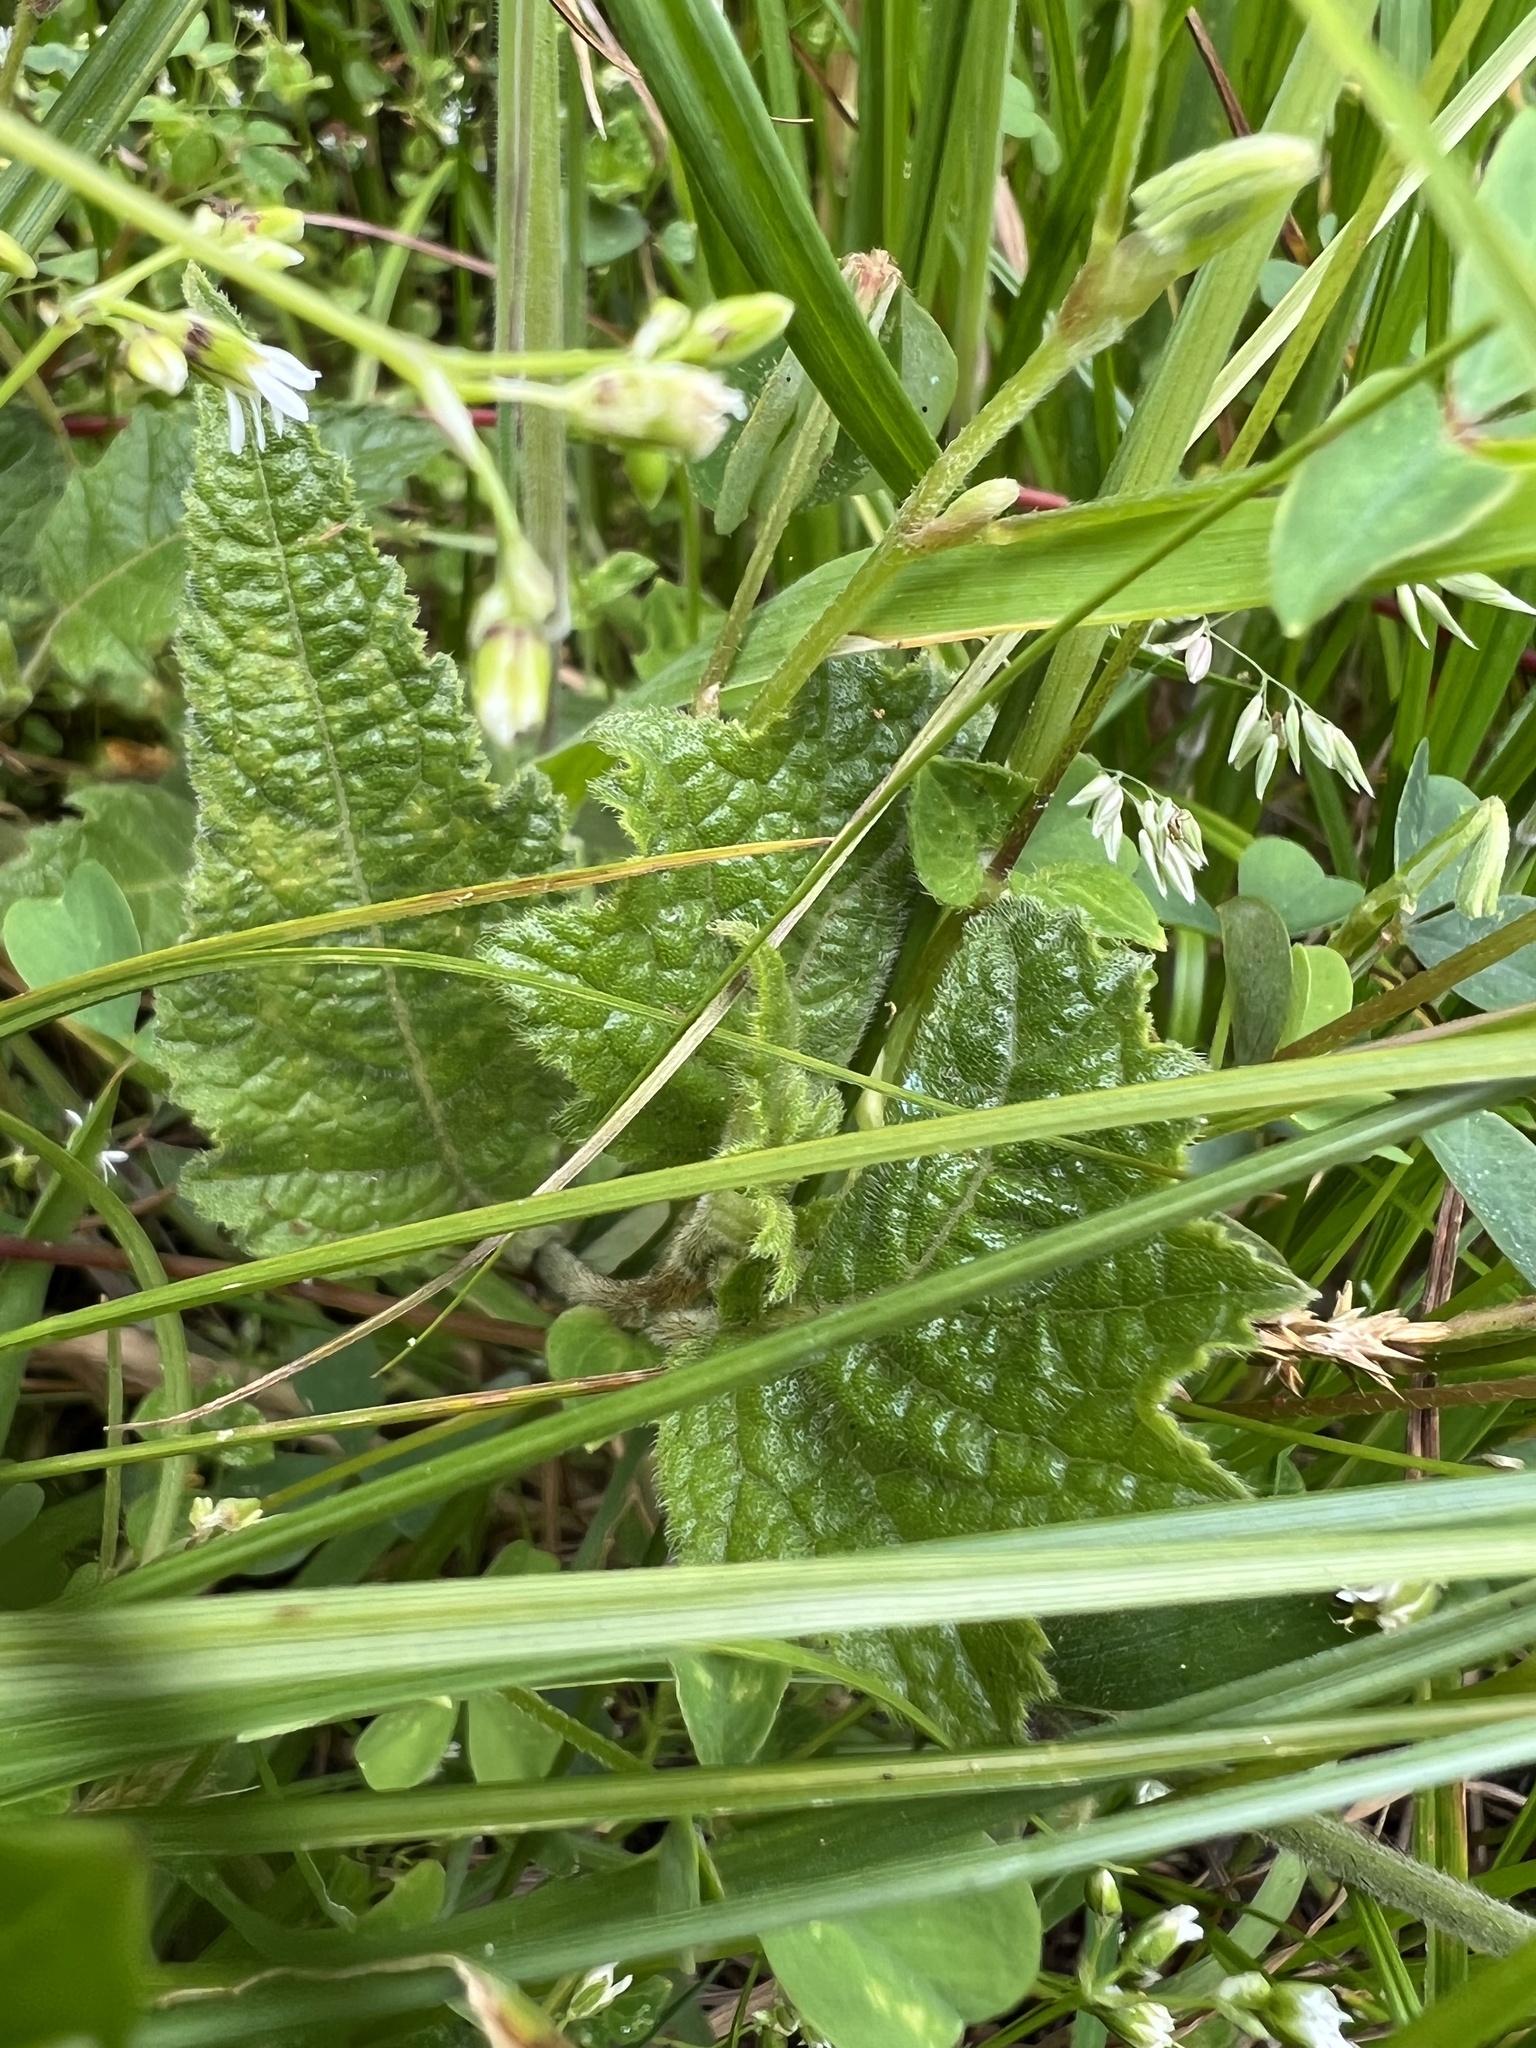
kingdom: Plantae
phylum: Tracheophyta
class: Magnoliopsida
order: Cornales
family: Loasaceae
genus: Nasa
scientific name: Nasa campaniflora
